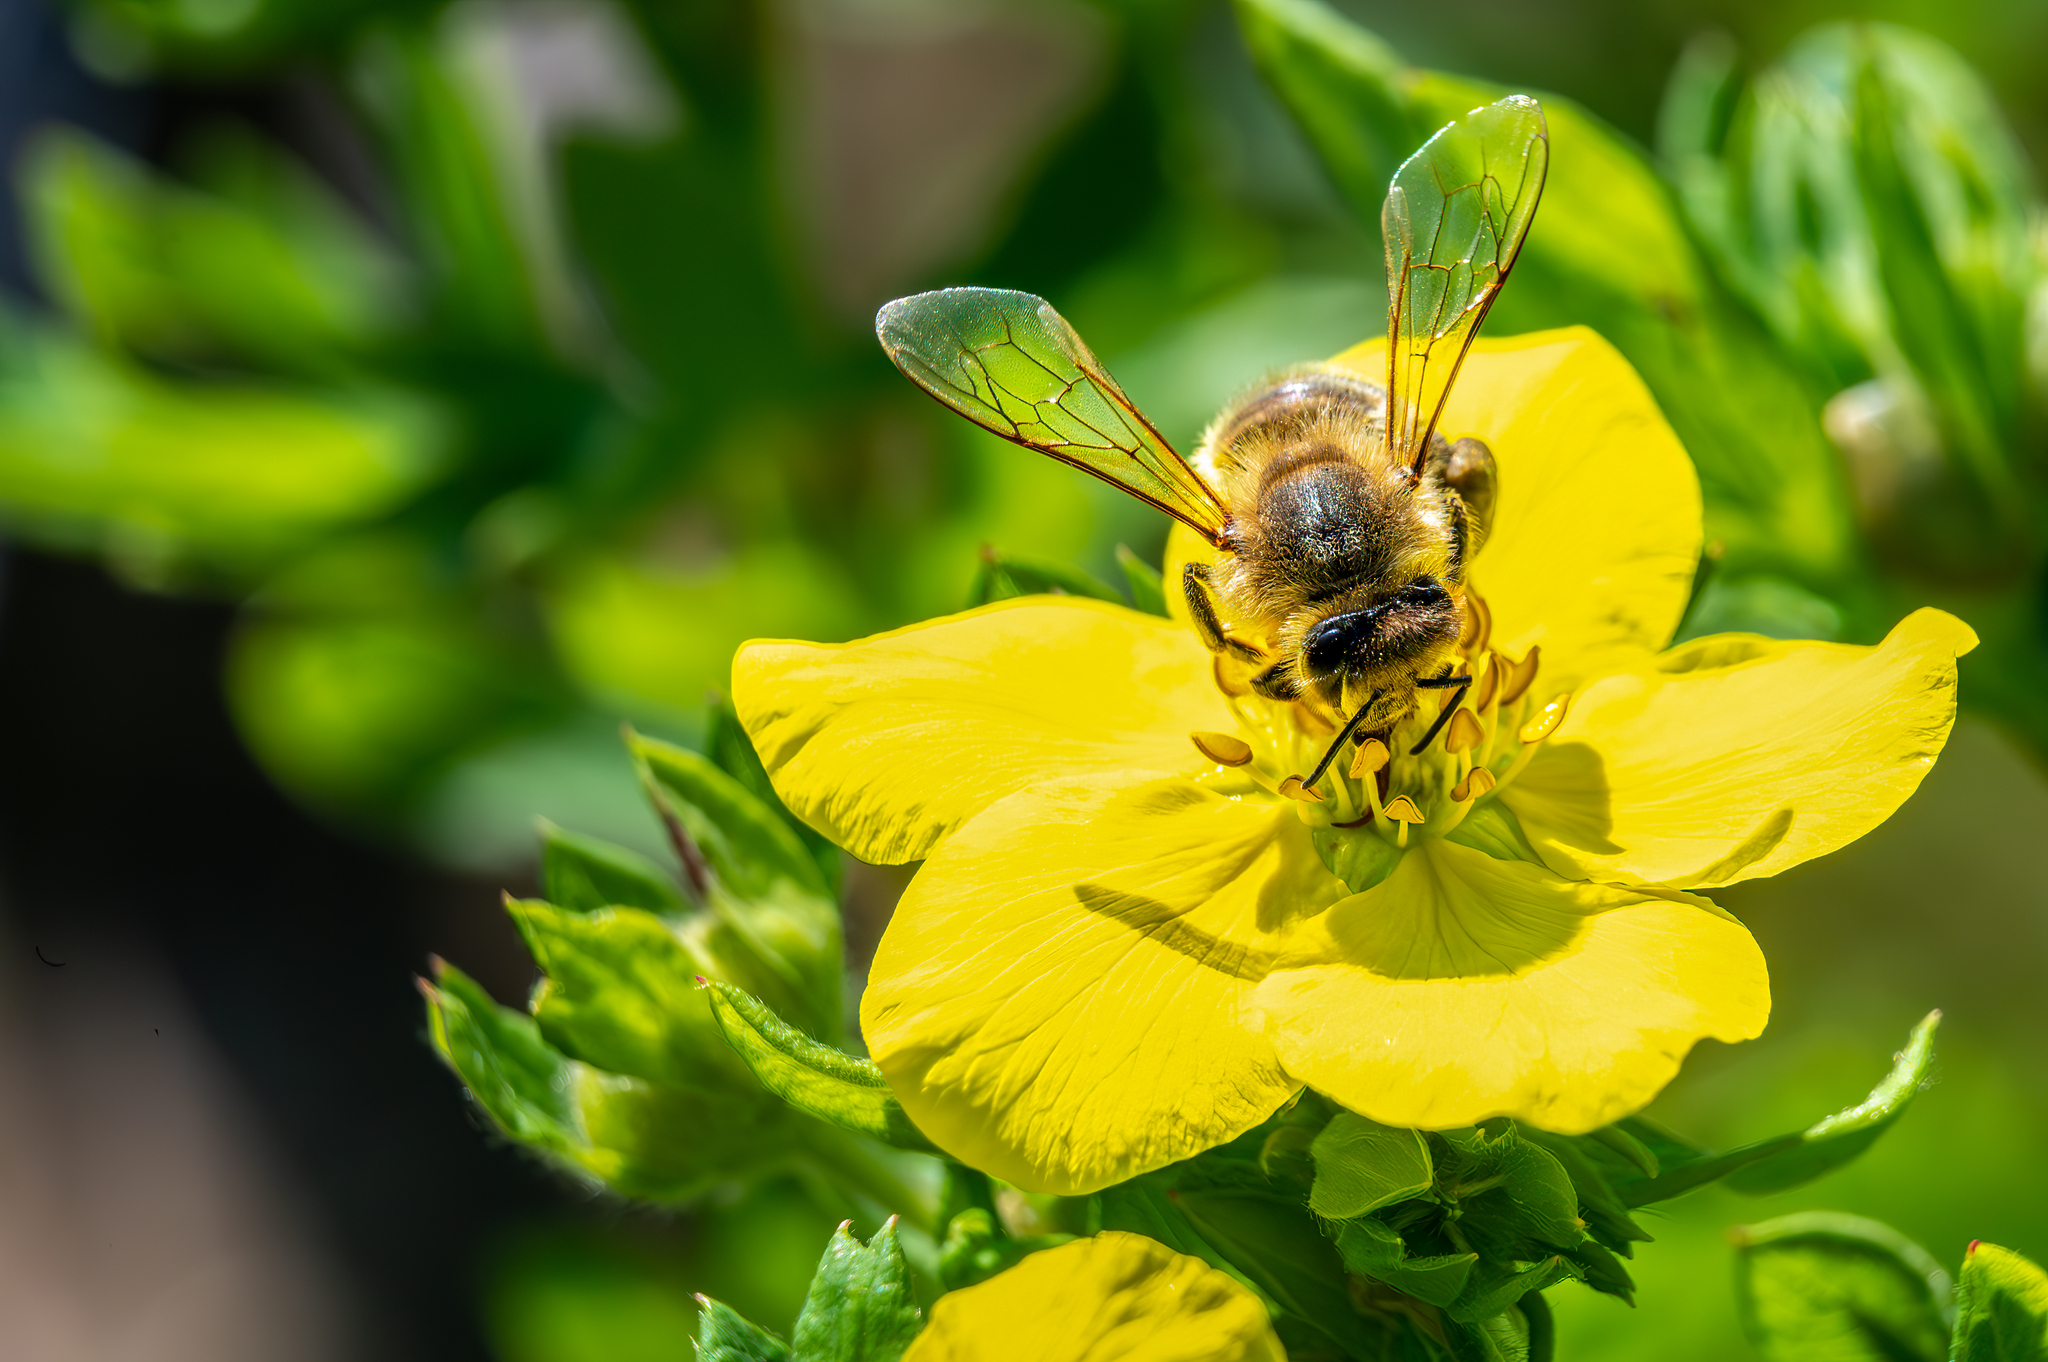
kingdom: Animalia
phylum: Arthropoda
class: Insecta
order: Hymenoptera
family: Apidae
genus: Apis
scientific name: Apis mellifera
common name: Honey bee
